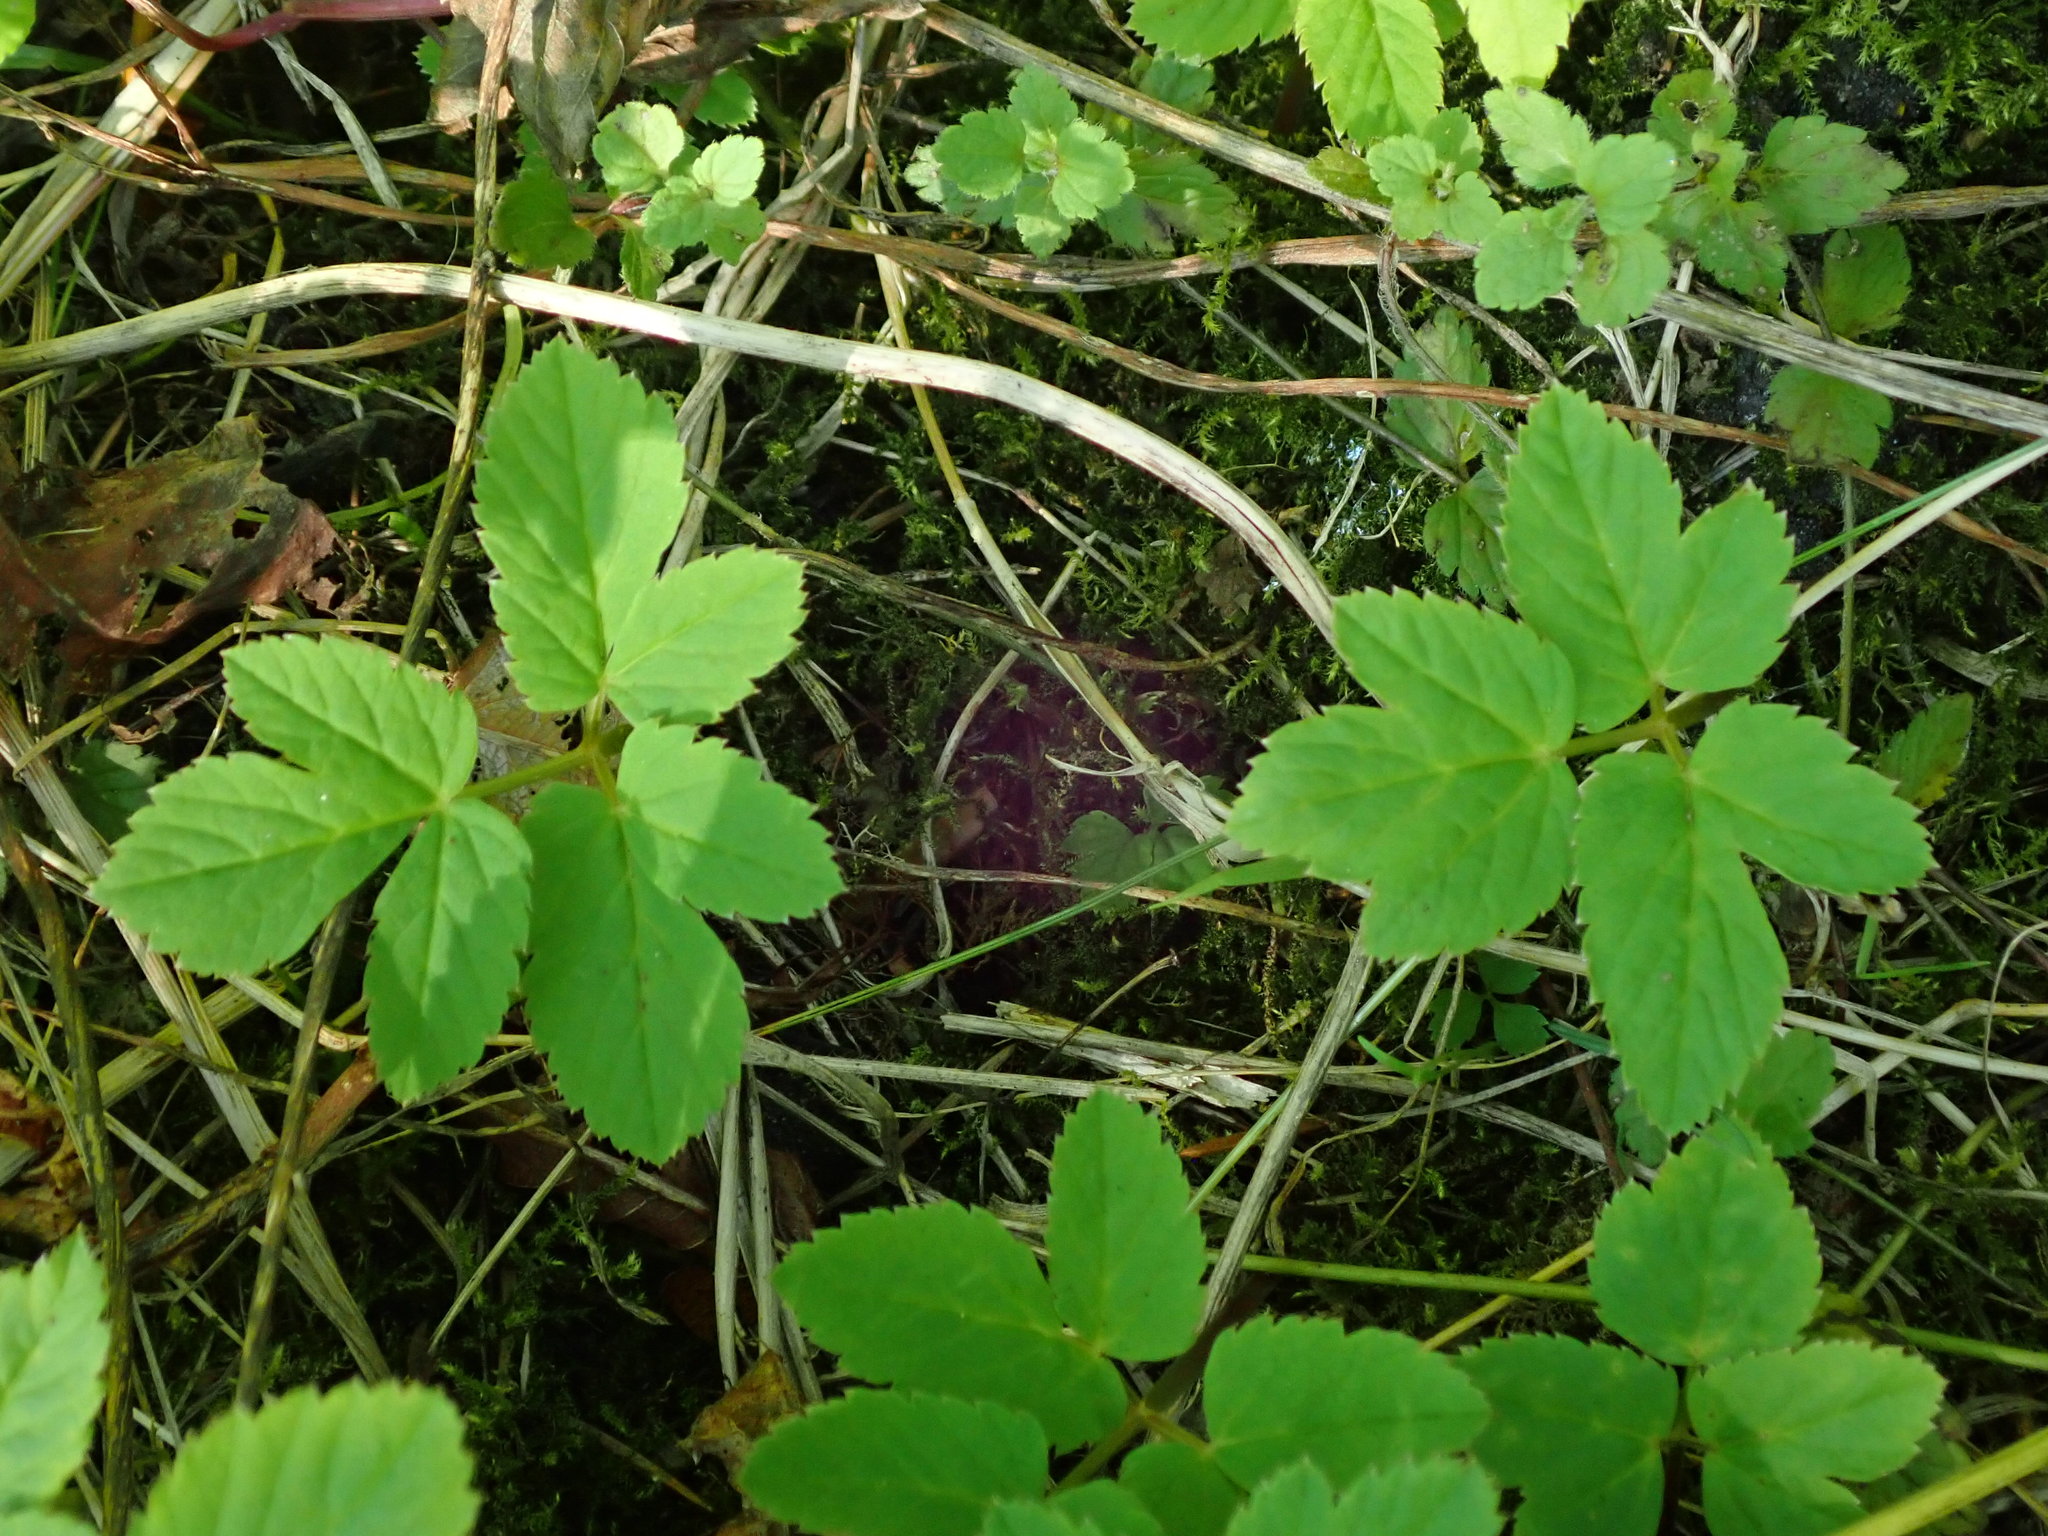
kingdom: Plantae
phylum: Tracheophyta
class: Magnoliopsida
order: Apiales
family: Apiaceae
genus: Aegopodium
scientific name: Aegopodium podagraria
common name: Ground-elder
